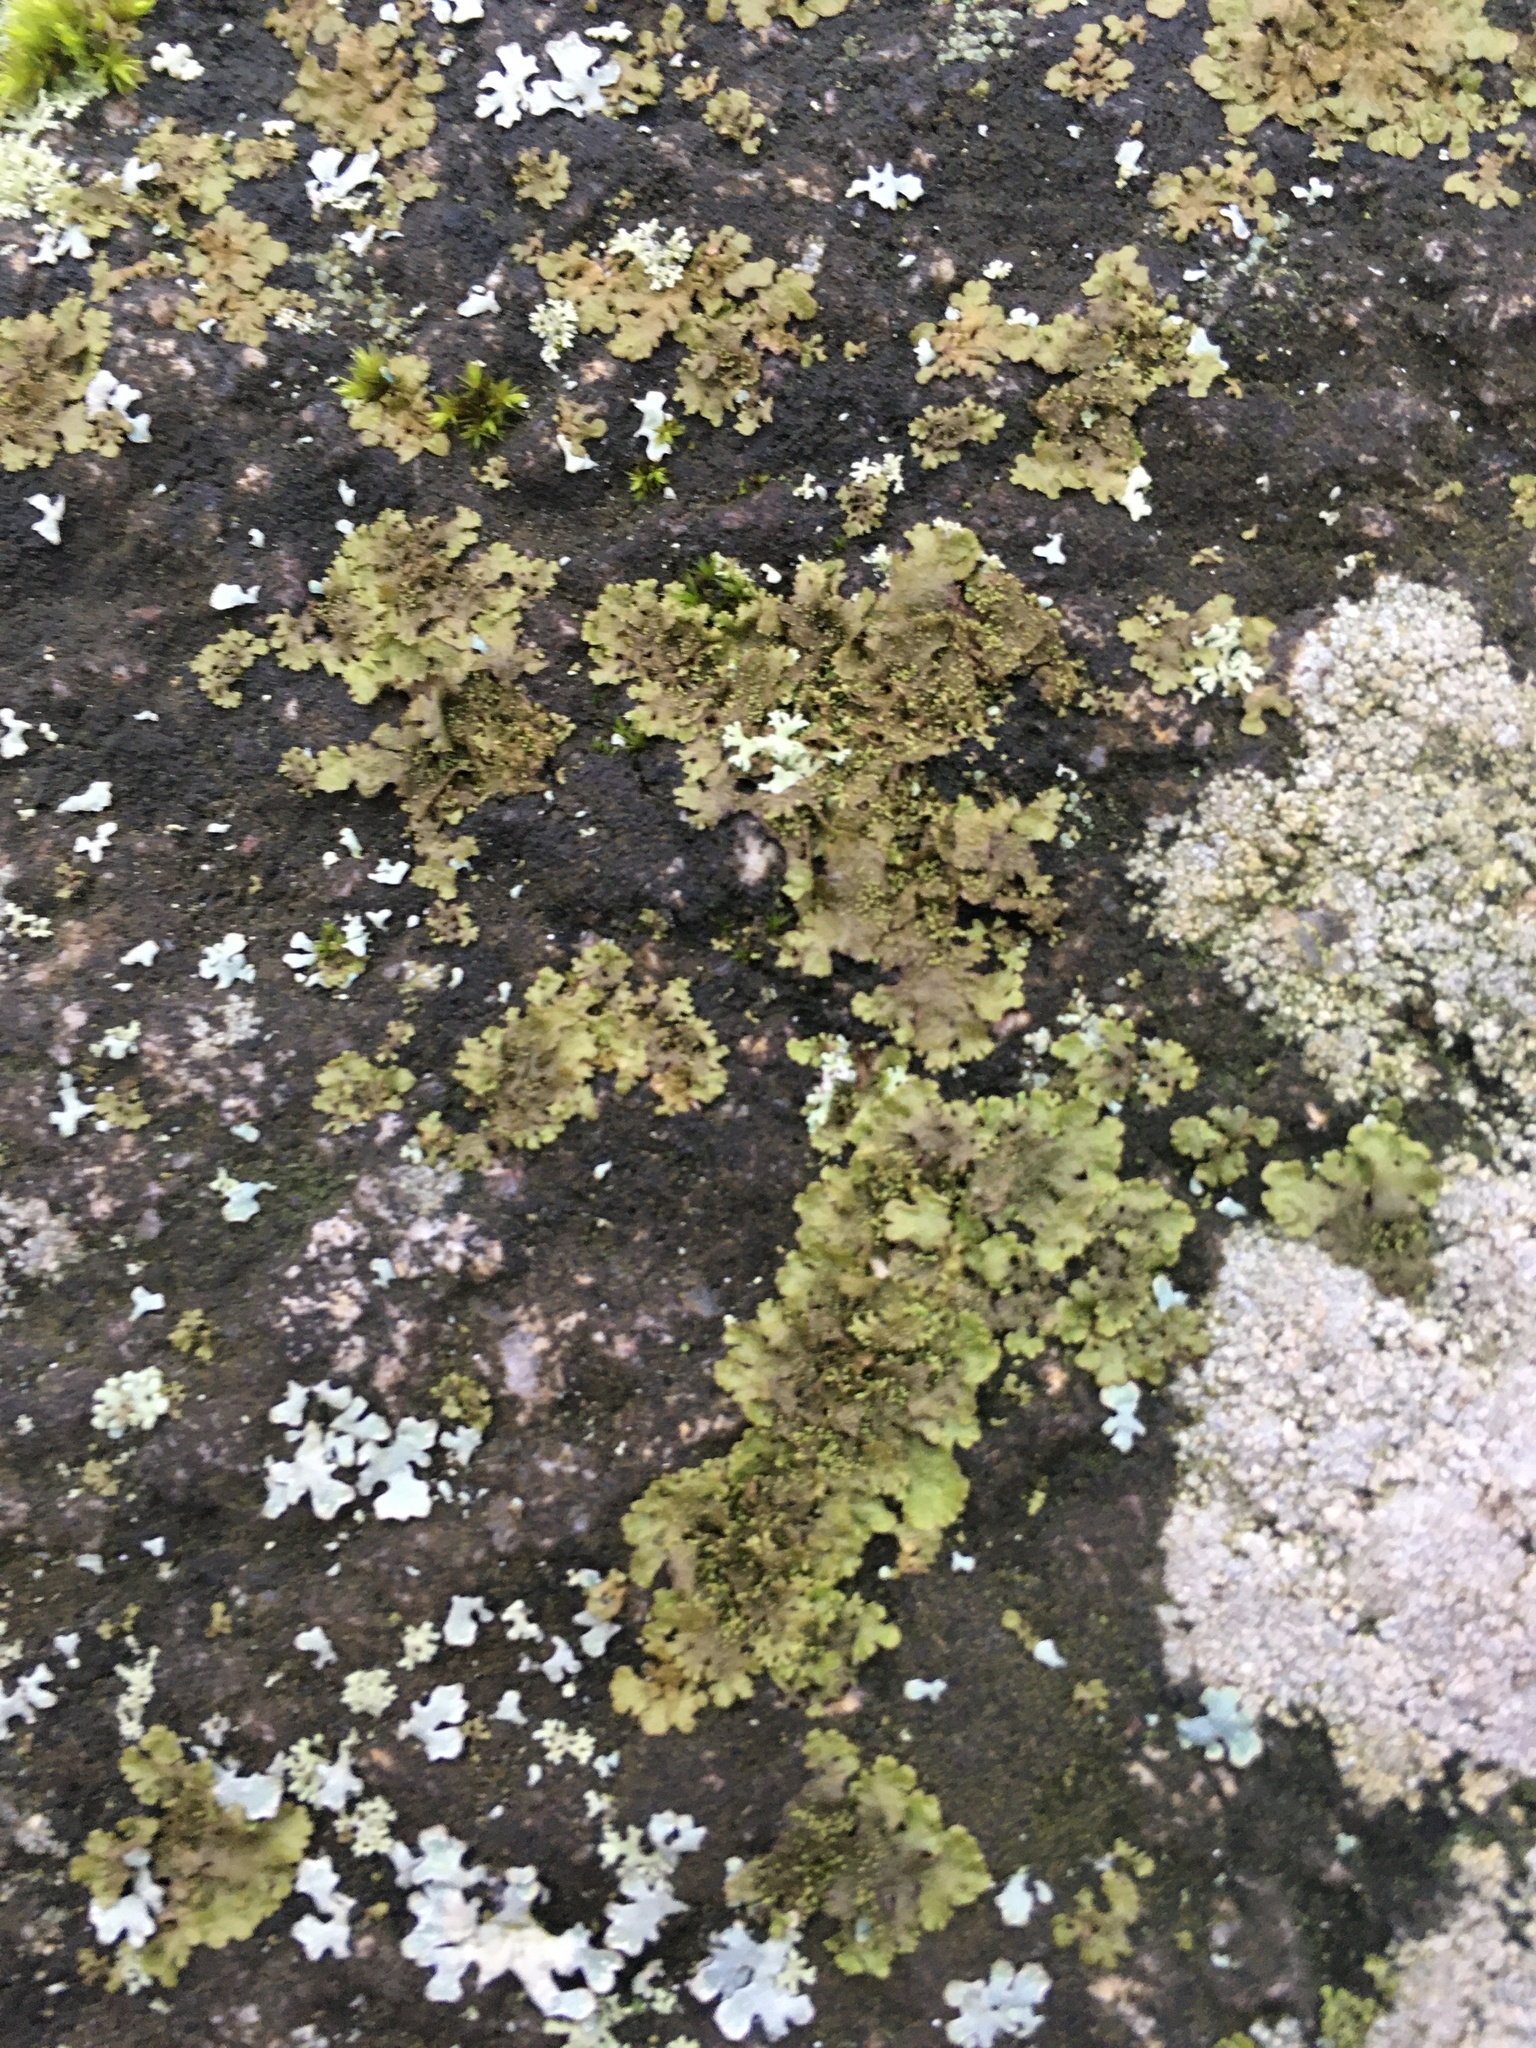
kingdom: Fungi
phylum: Ascomycota
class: Lecanoromycetes
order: Lecanorales
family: Parmeliaceae
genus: Melanohalea
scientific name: Melanohalea exasperatula
